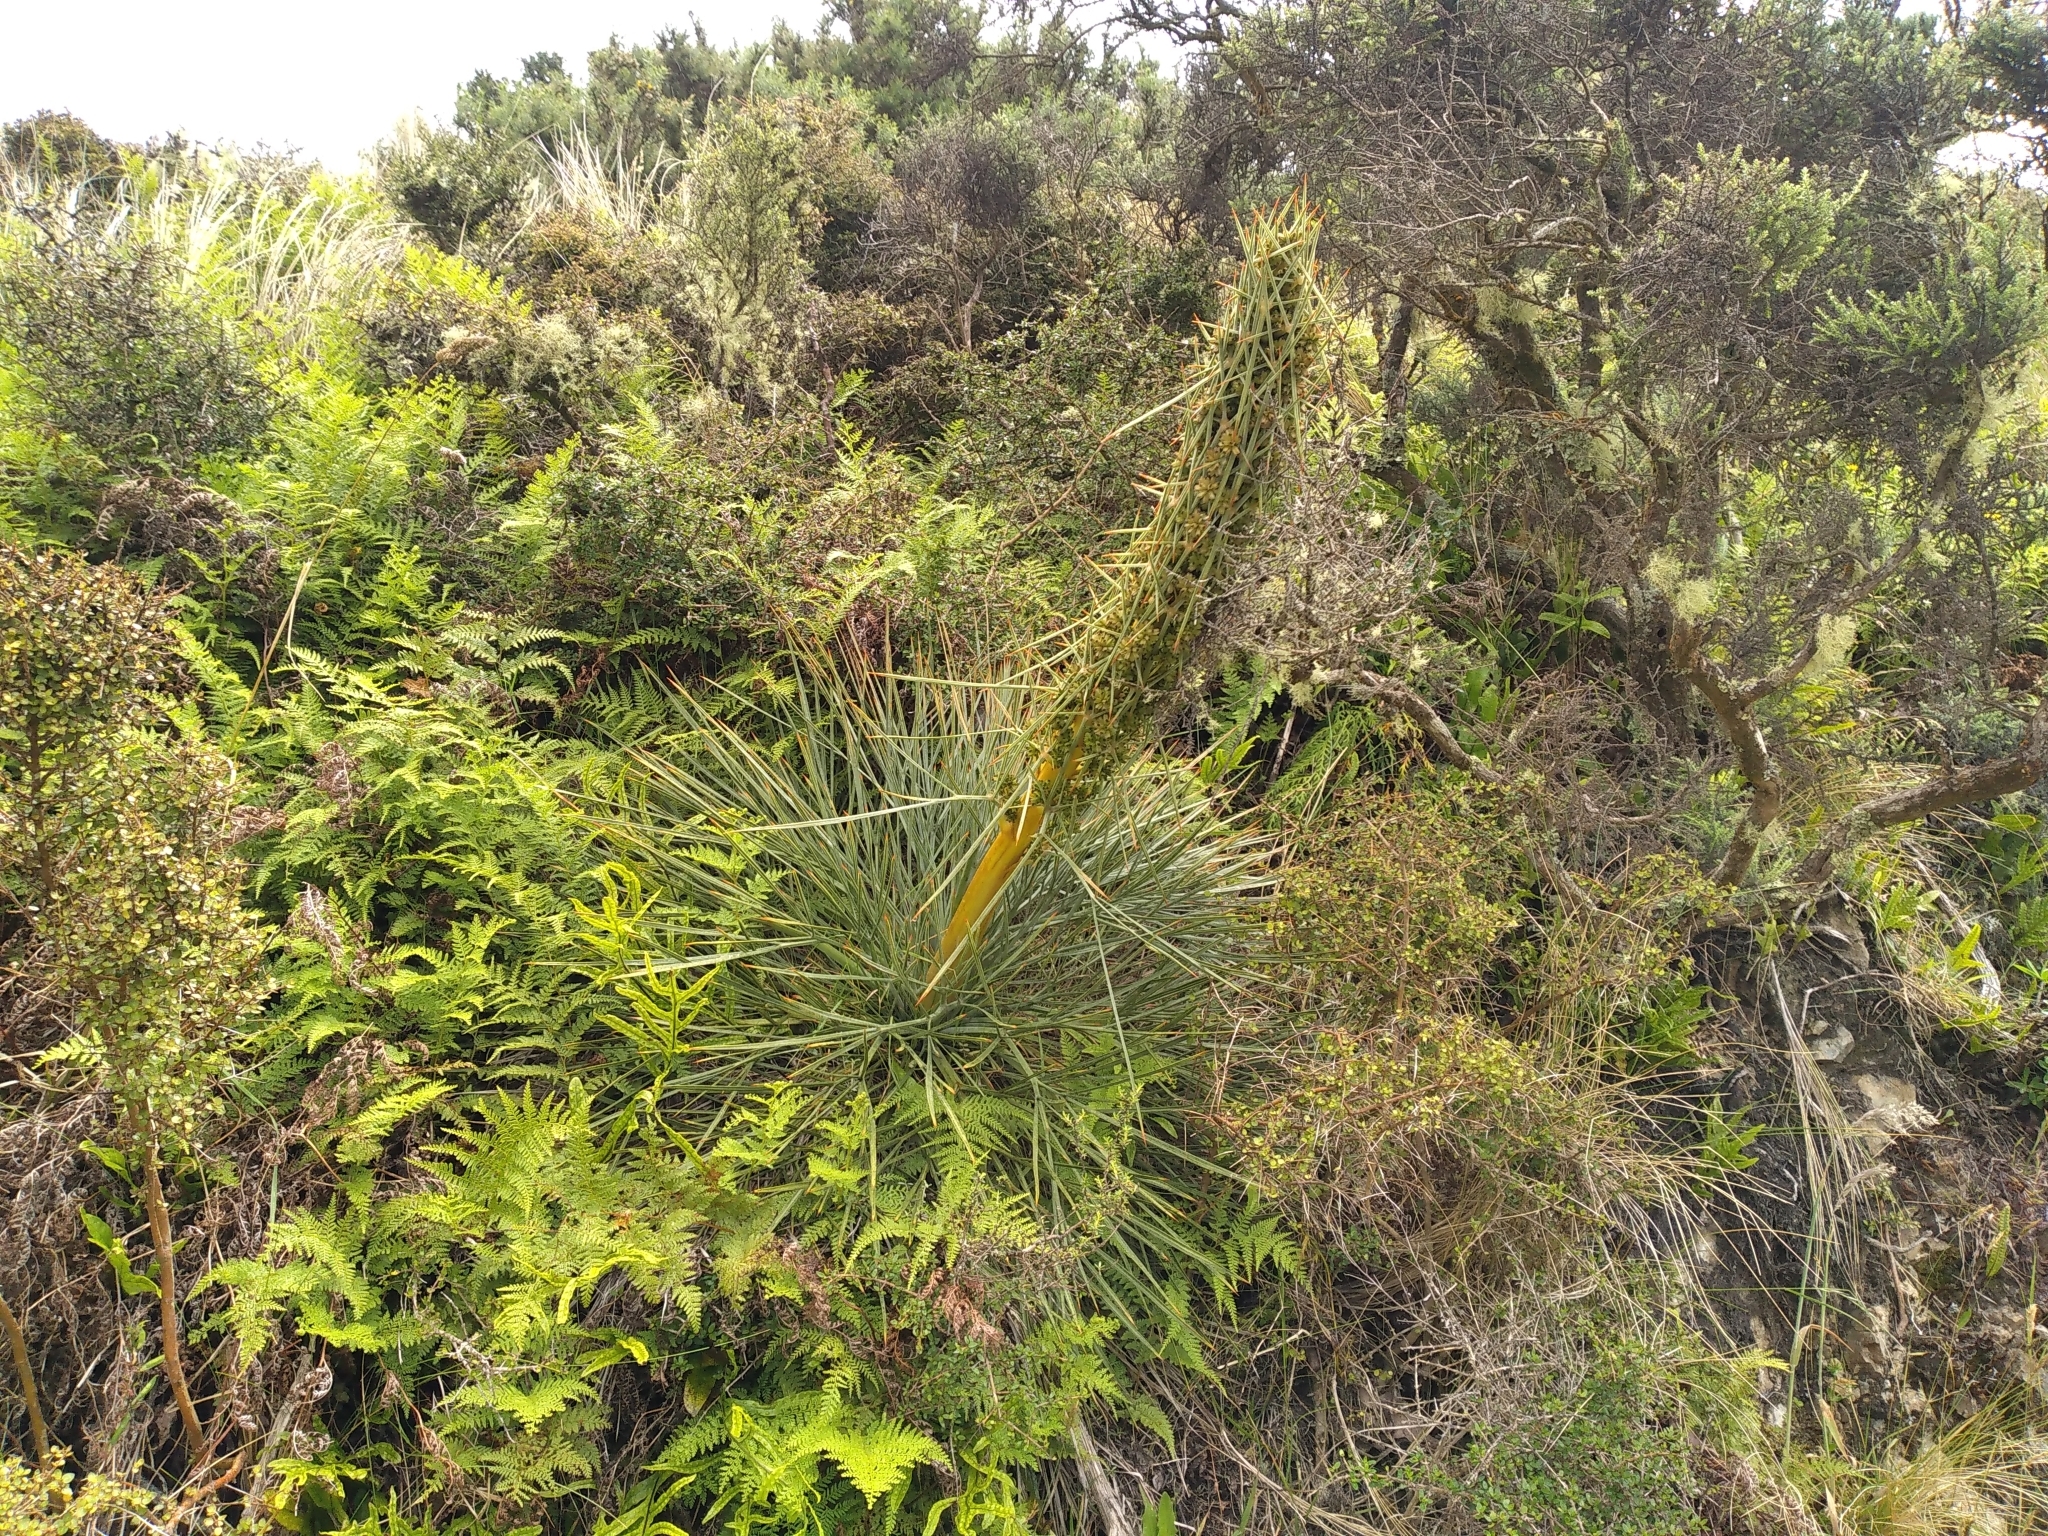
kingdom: Plantae
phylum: Tracheophyta
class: Magnoliopsida
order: Apiales
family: Apiaceae
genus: Aciphylla
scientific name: Aciphylla squarrosa
